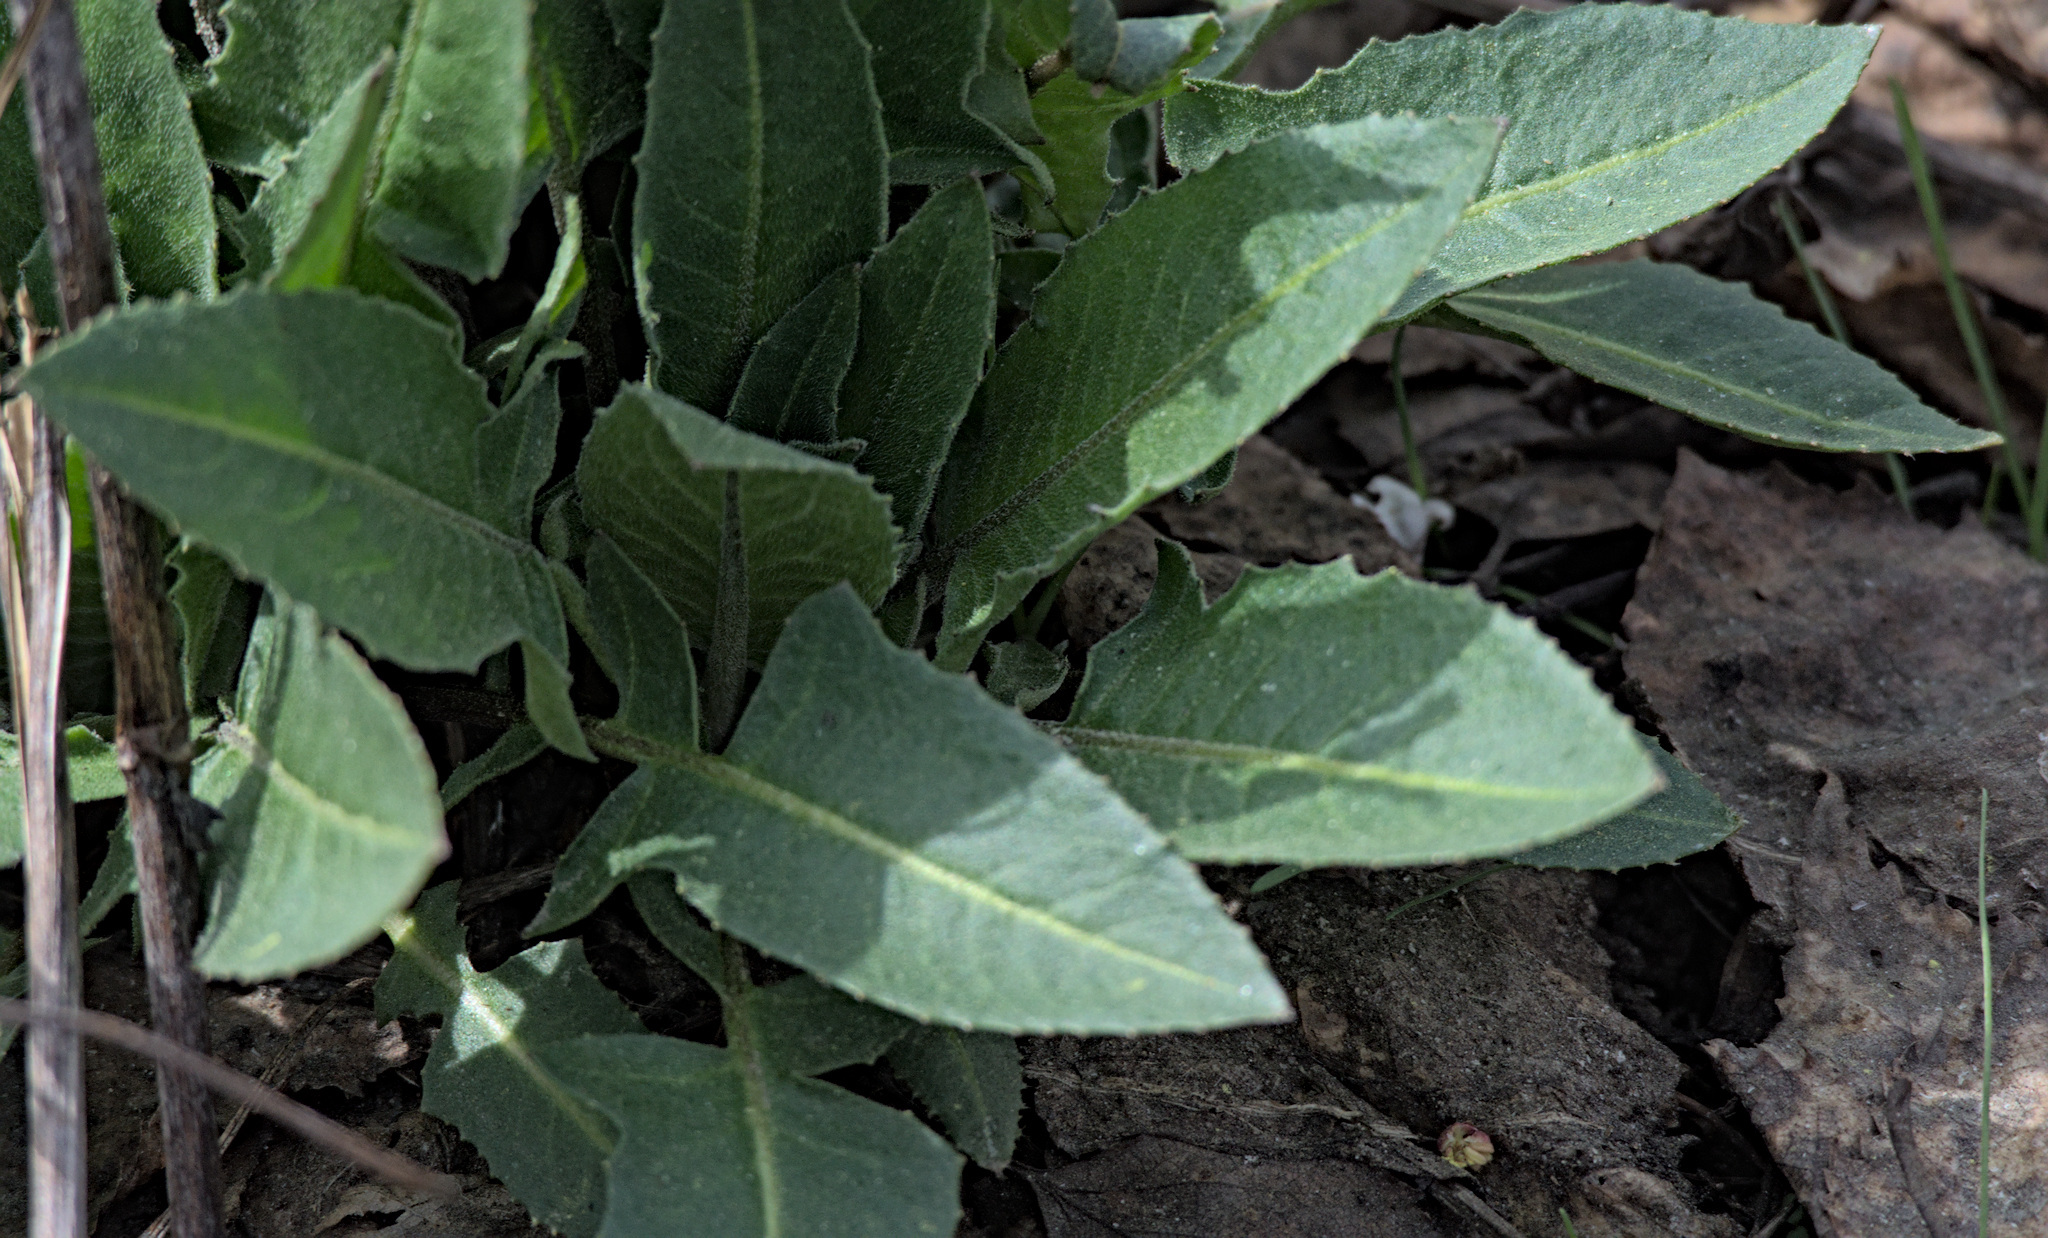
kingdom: Plantae
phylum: Tracheophyta
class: Magnoliopsida
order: Brassicales
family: Brassicaceae
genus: Bunias
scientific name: Bunias orientalis
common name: Warty-cabbage
